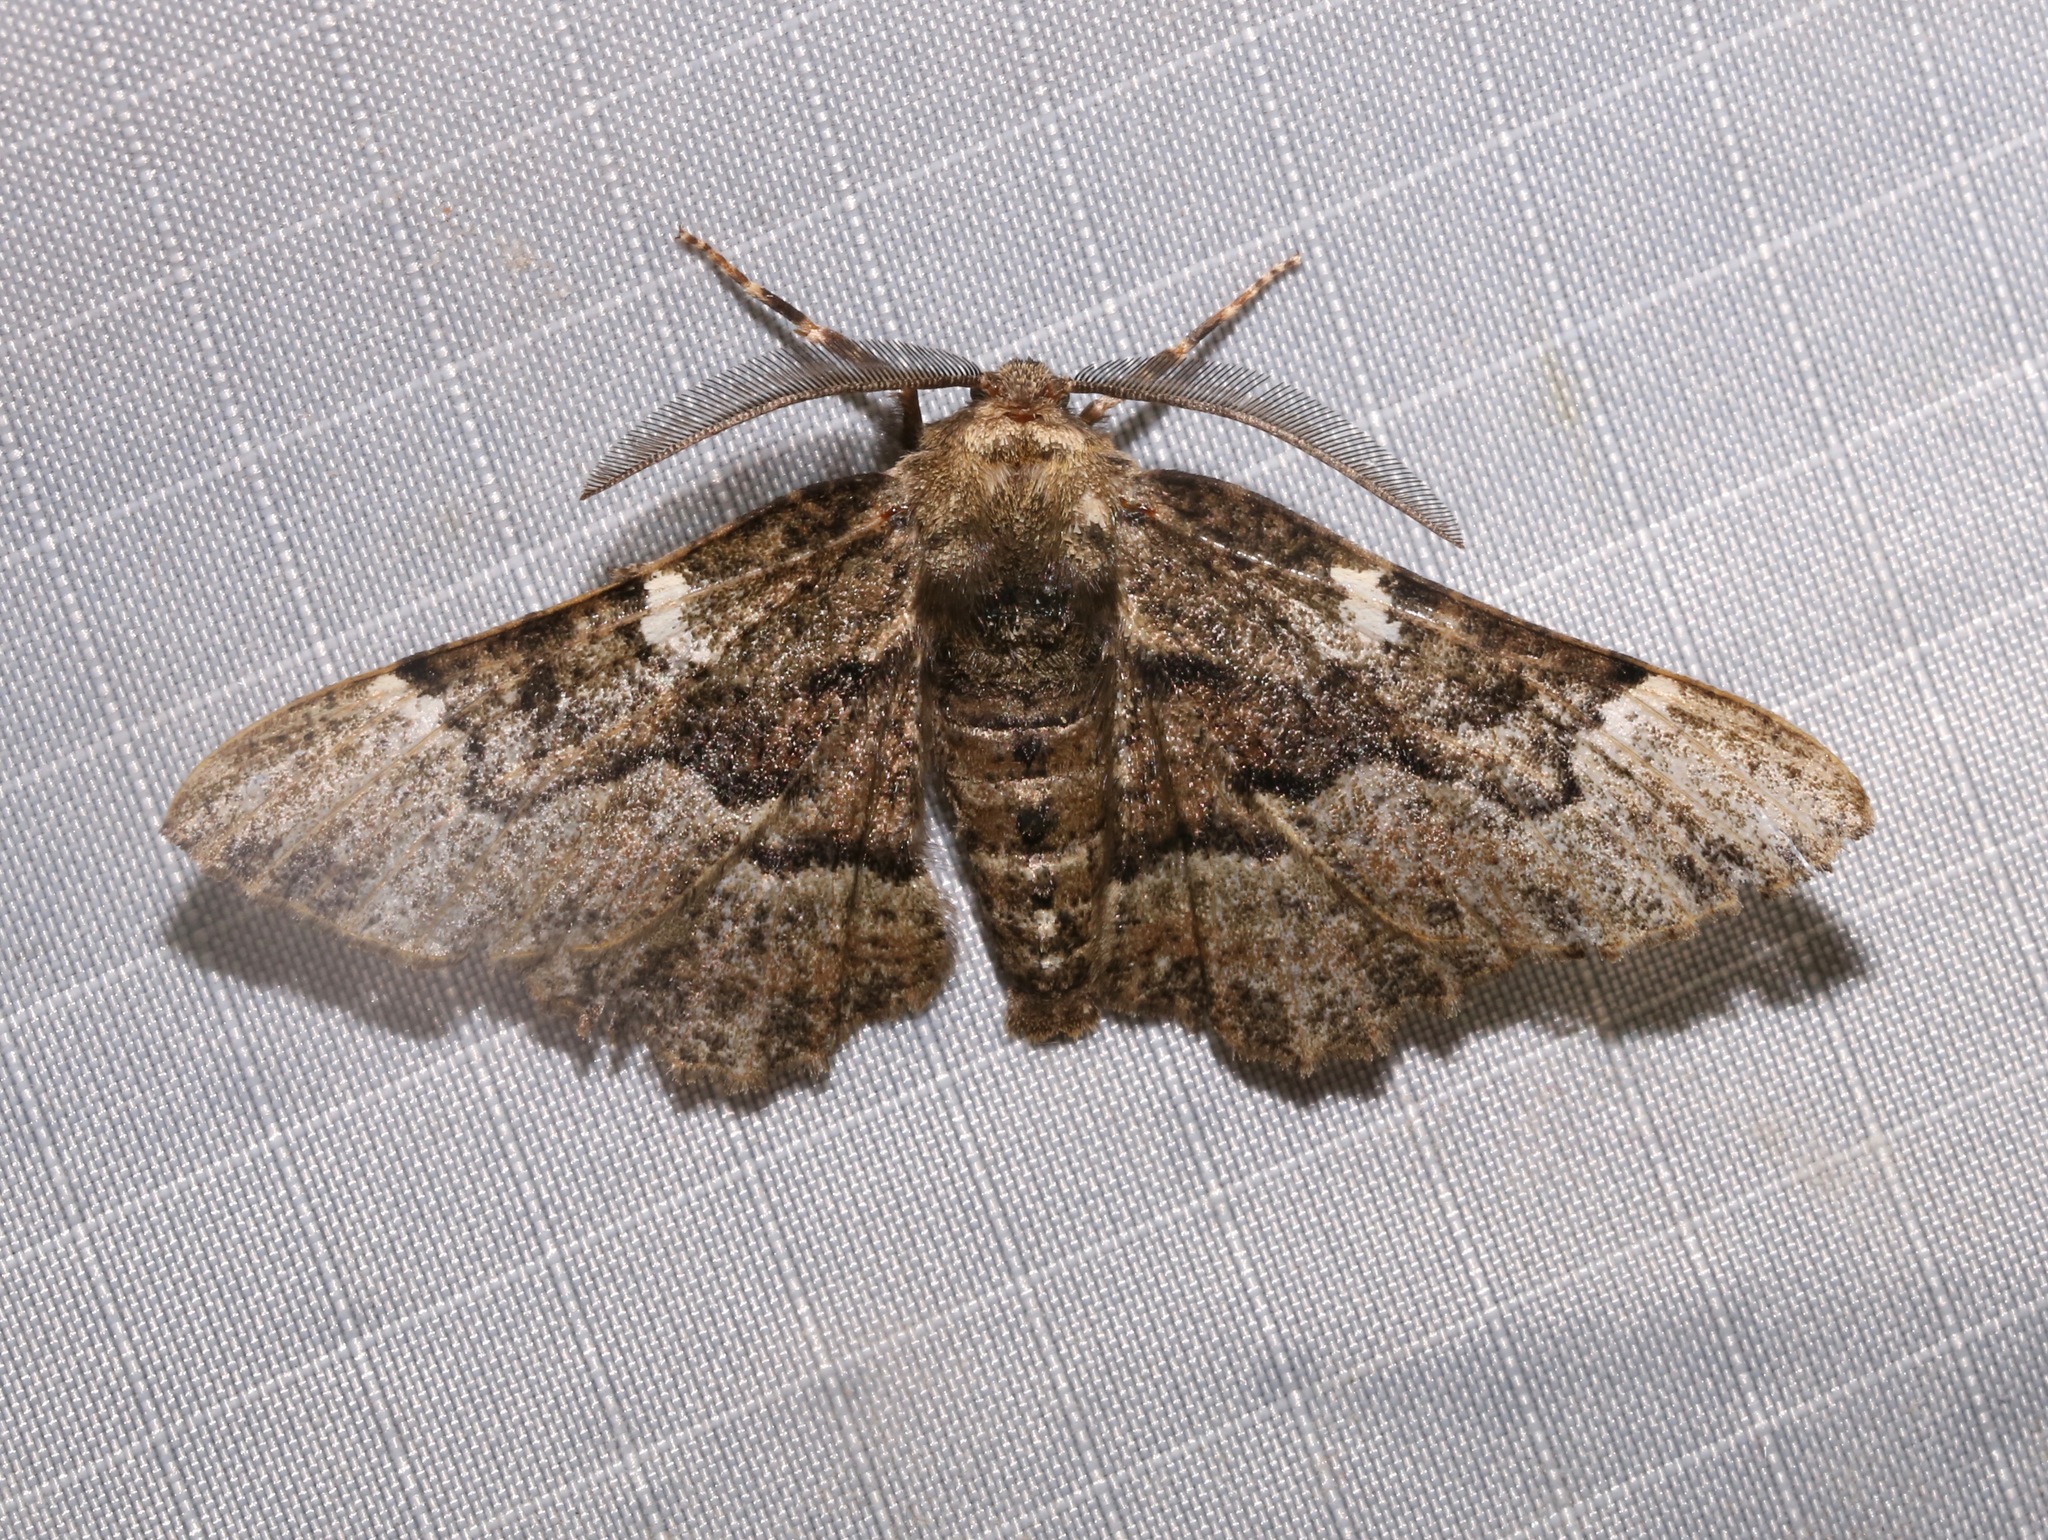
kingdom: Animalia
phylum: Arthropoda
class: Insecta
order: Lepidoptera
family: Geometridae
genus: Phaeoura
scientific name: Phaeoura quernaria
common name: Oak beauty
